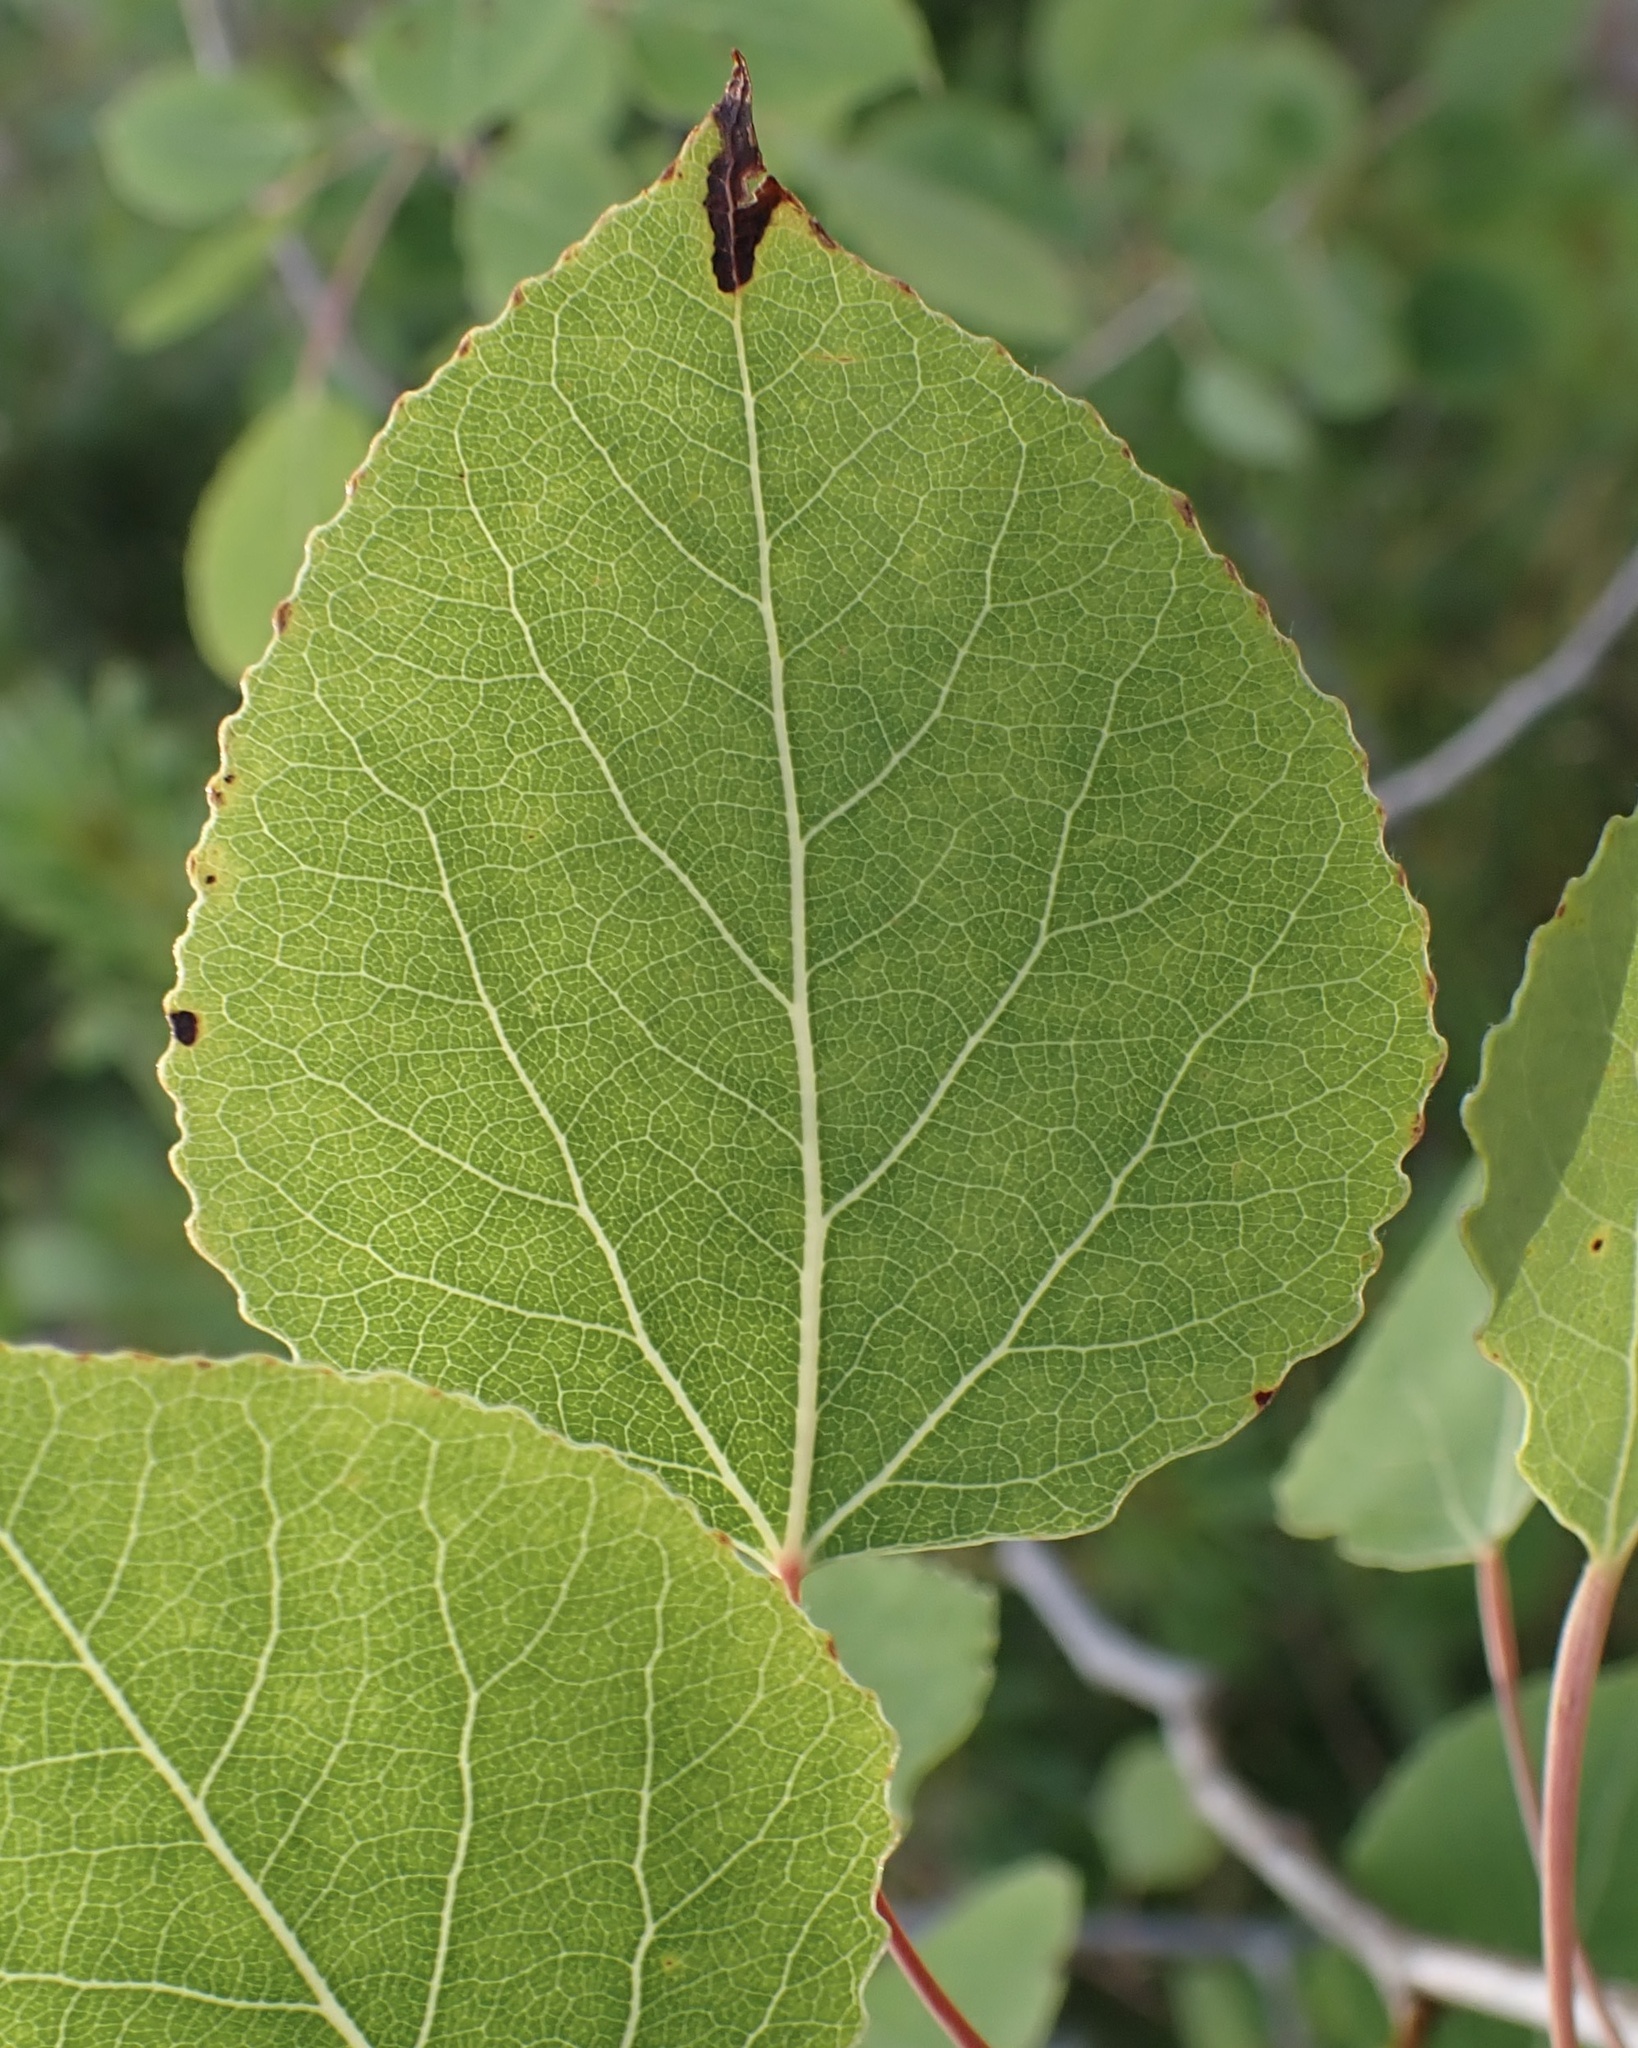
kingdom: Plantae
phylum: Tracheophyta
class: Magnoliopsida
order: Malpighiales
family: Salicaceae
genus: Populus
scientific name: Populus tremuloides
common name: Quaking aspen
